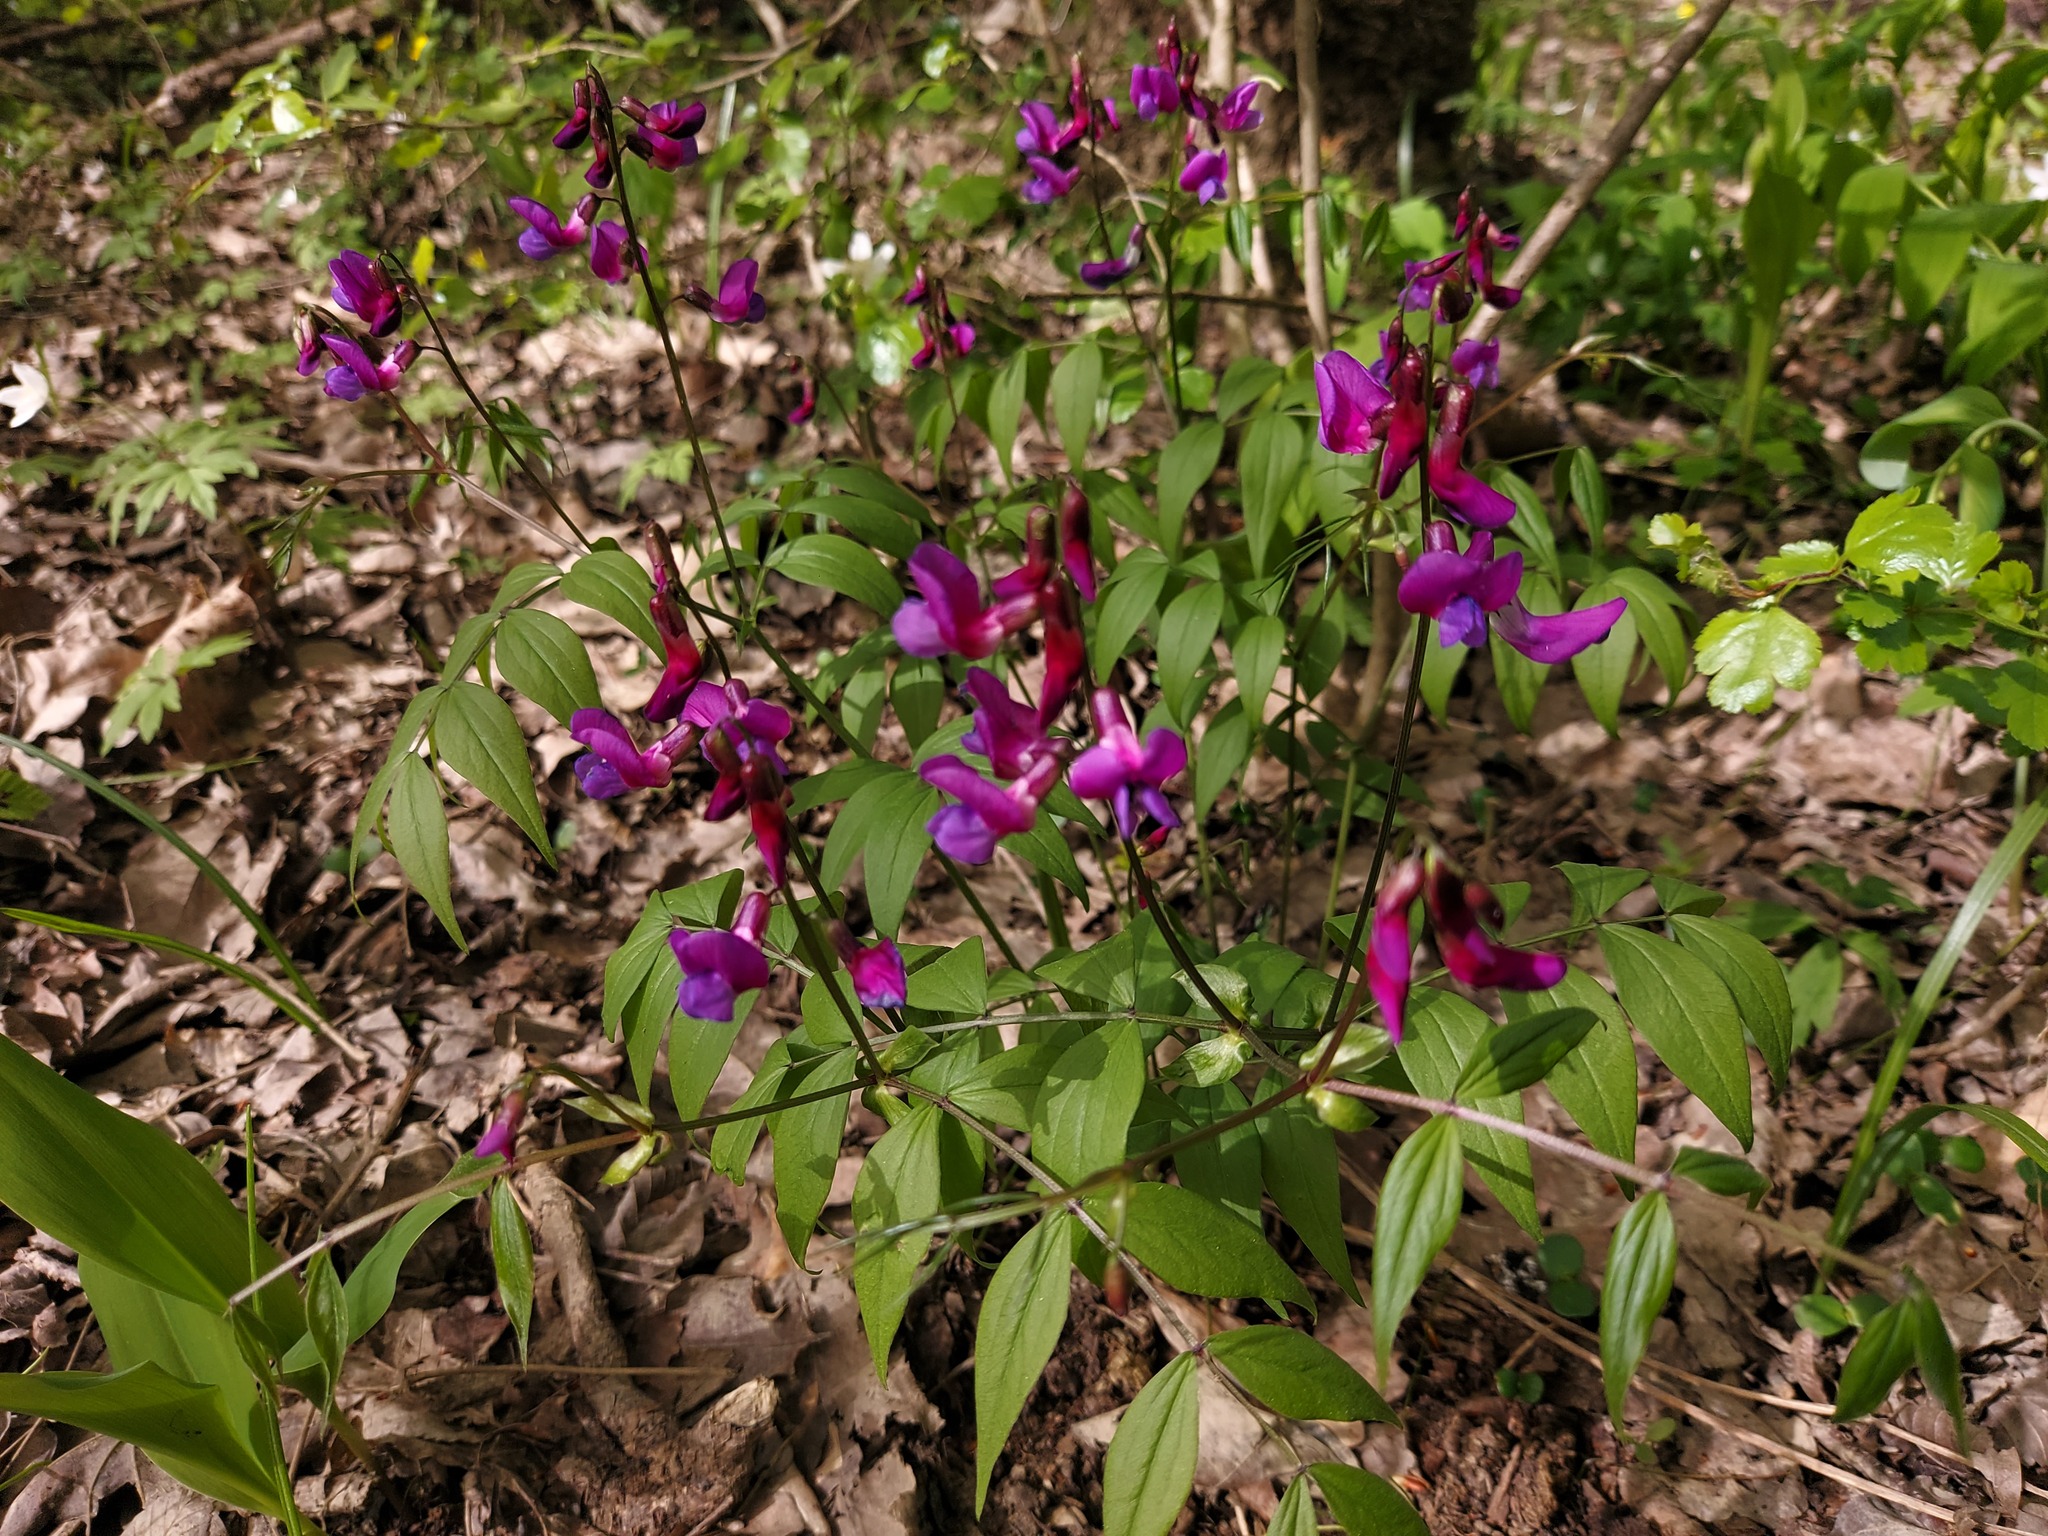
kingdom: Plantae
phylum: Tracheophyta
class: Magnoliopsida
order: Fabales
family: Fabaceae
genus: Lathyrus
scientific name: Lathyrus vernus
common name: Spring pea
